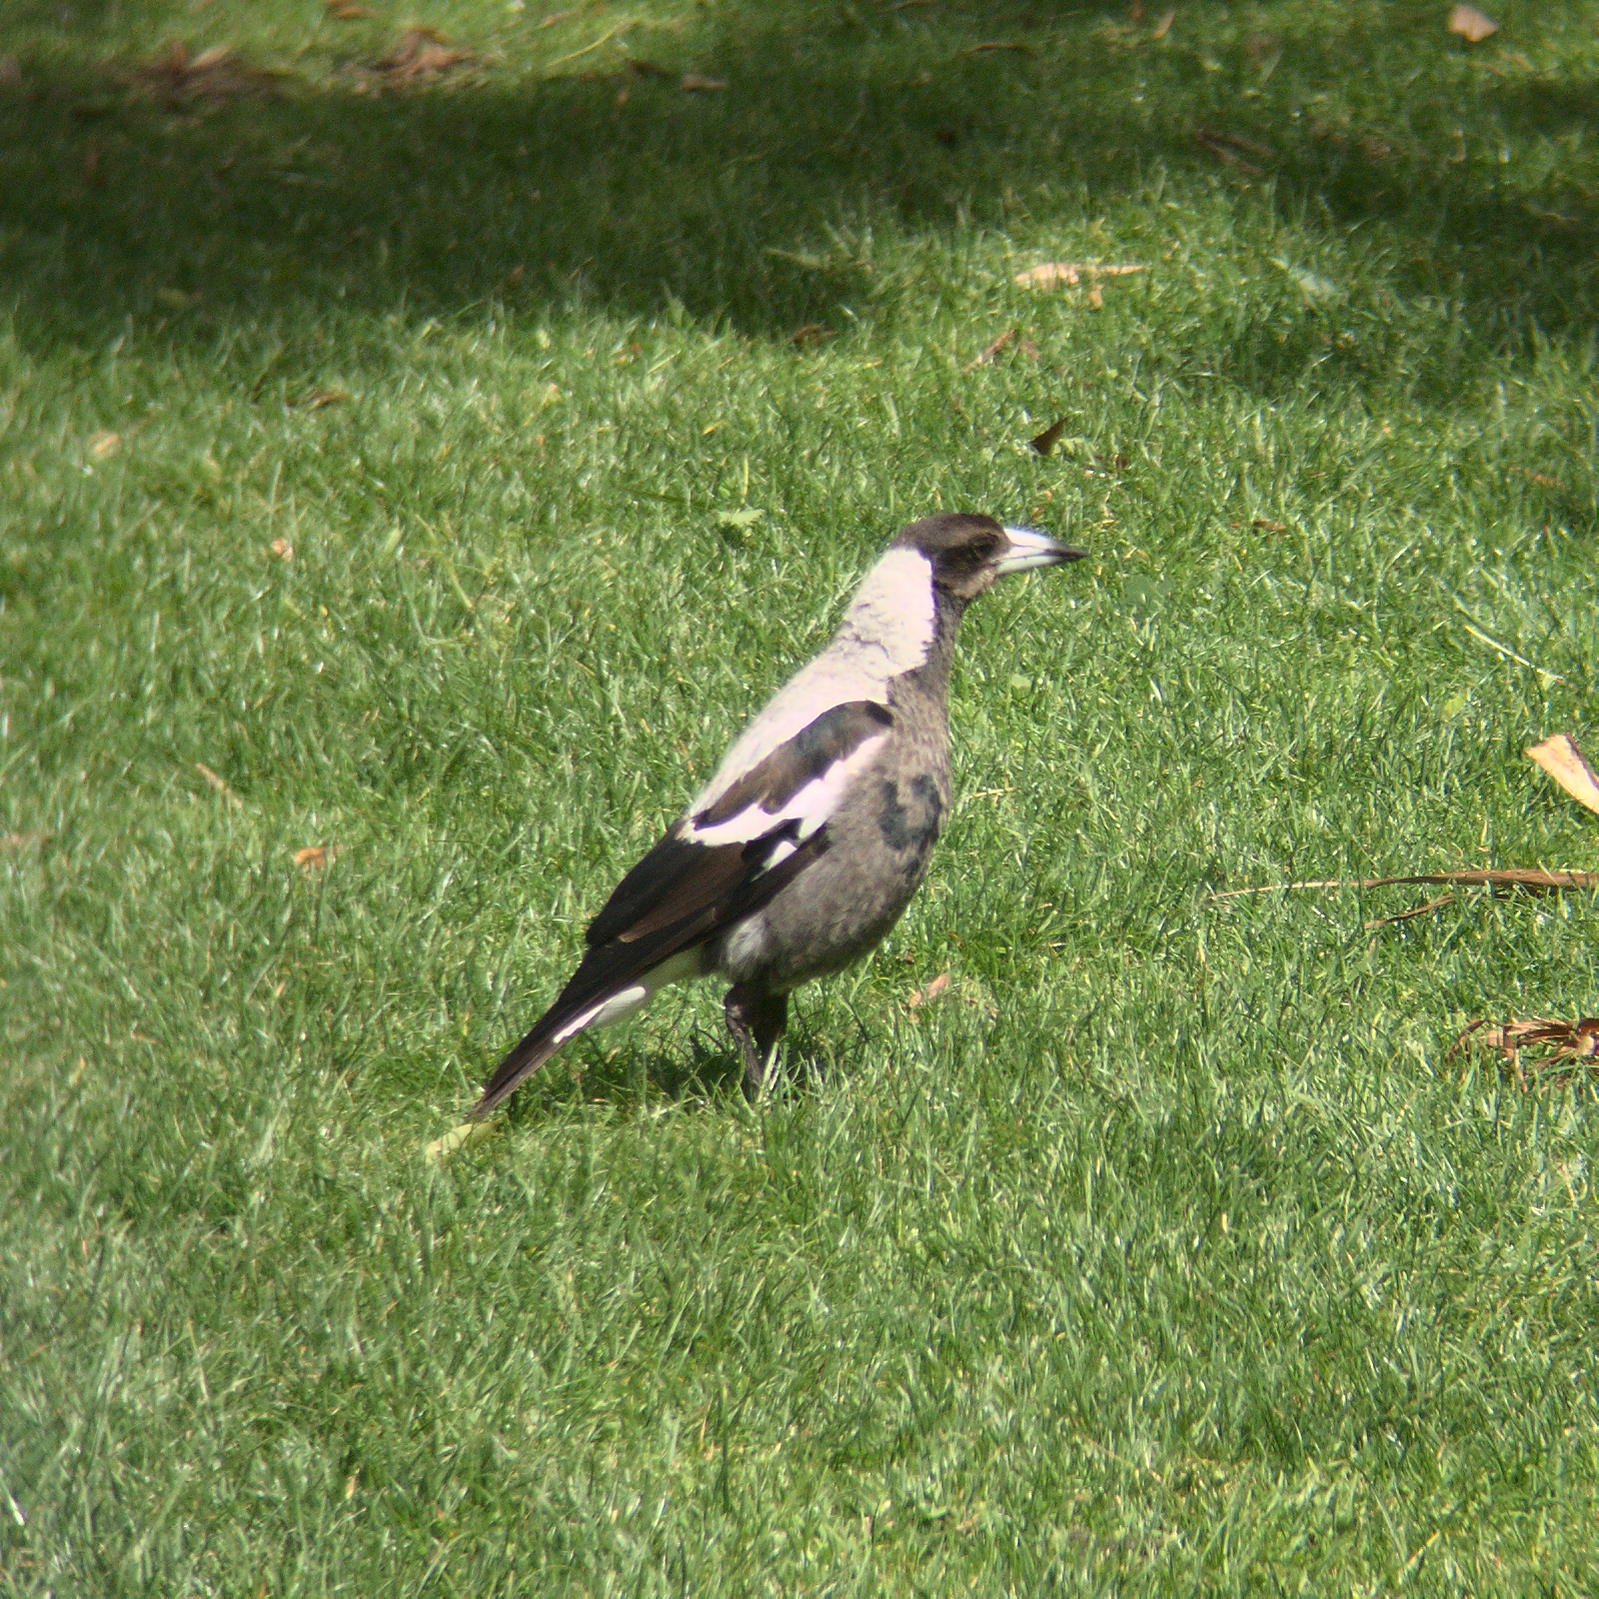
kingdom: Animalia
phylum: Chordata
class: Aves
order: Passeriformes
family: Cracticidae
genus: Gymnorhina
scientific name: Gymnorhina tibicen
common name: Australian magpie
